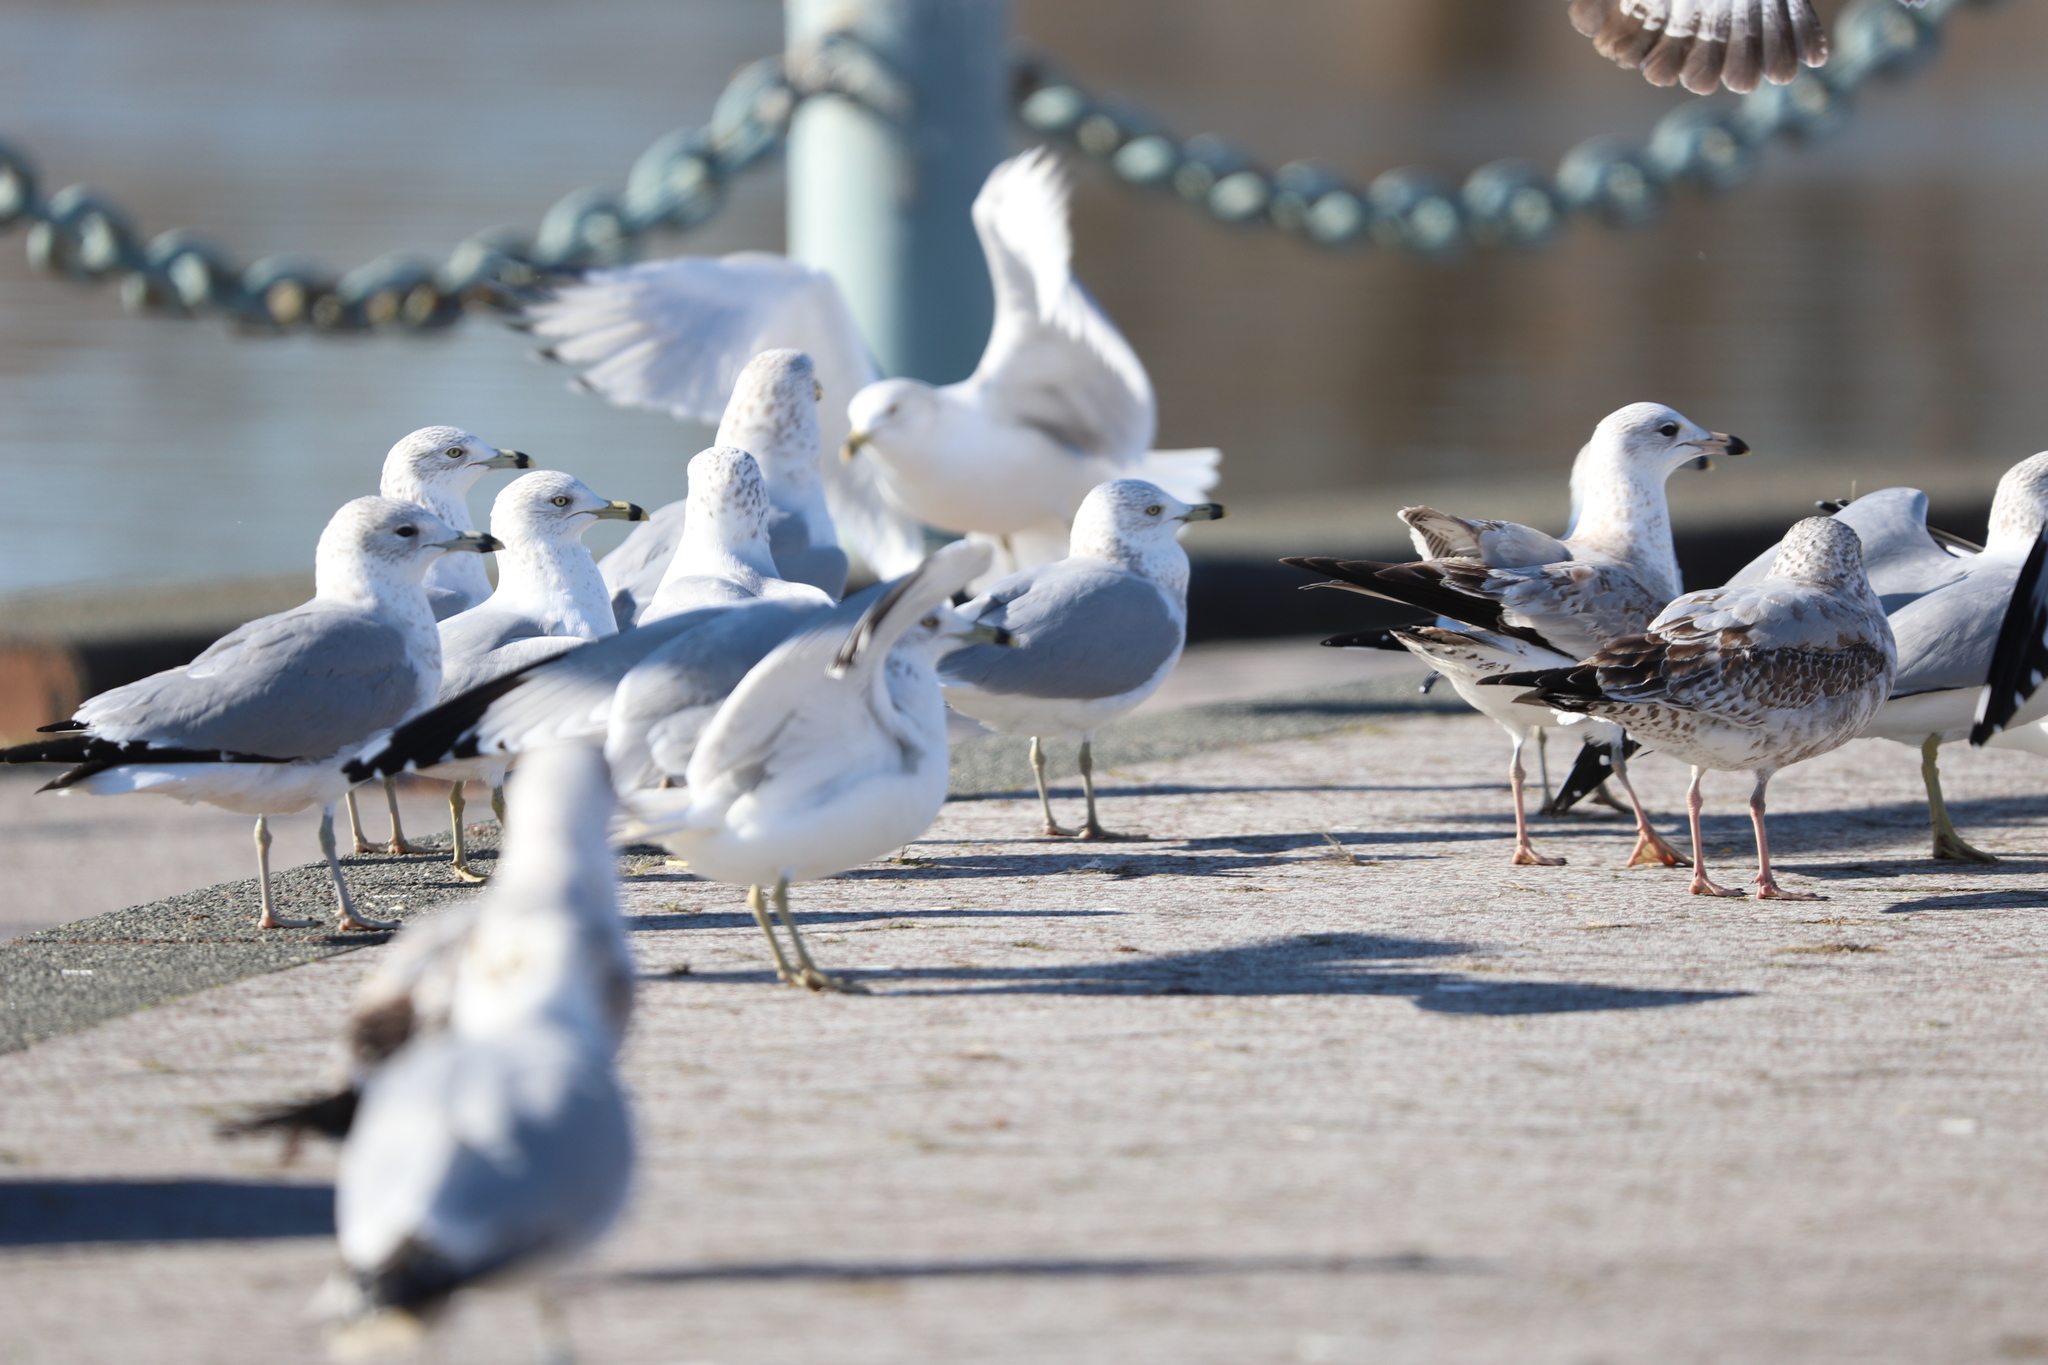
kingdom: Animalia
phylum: Chordata
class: Aves
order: Charadriiformes
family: Laridae
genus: Larus
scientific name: Larus delawarensis
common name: Ring-billed gull
